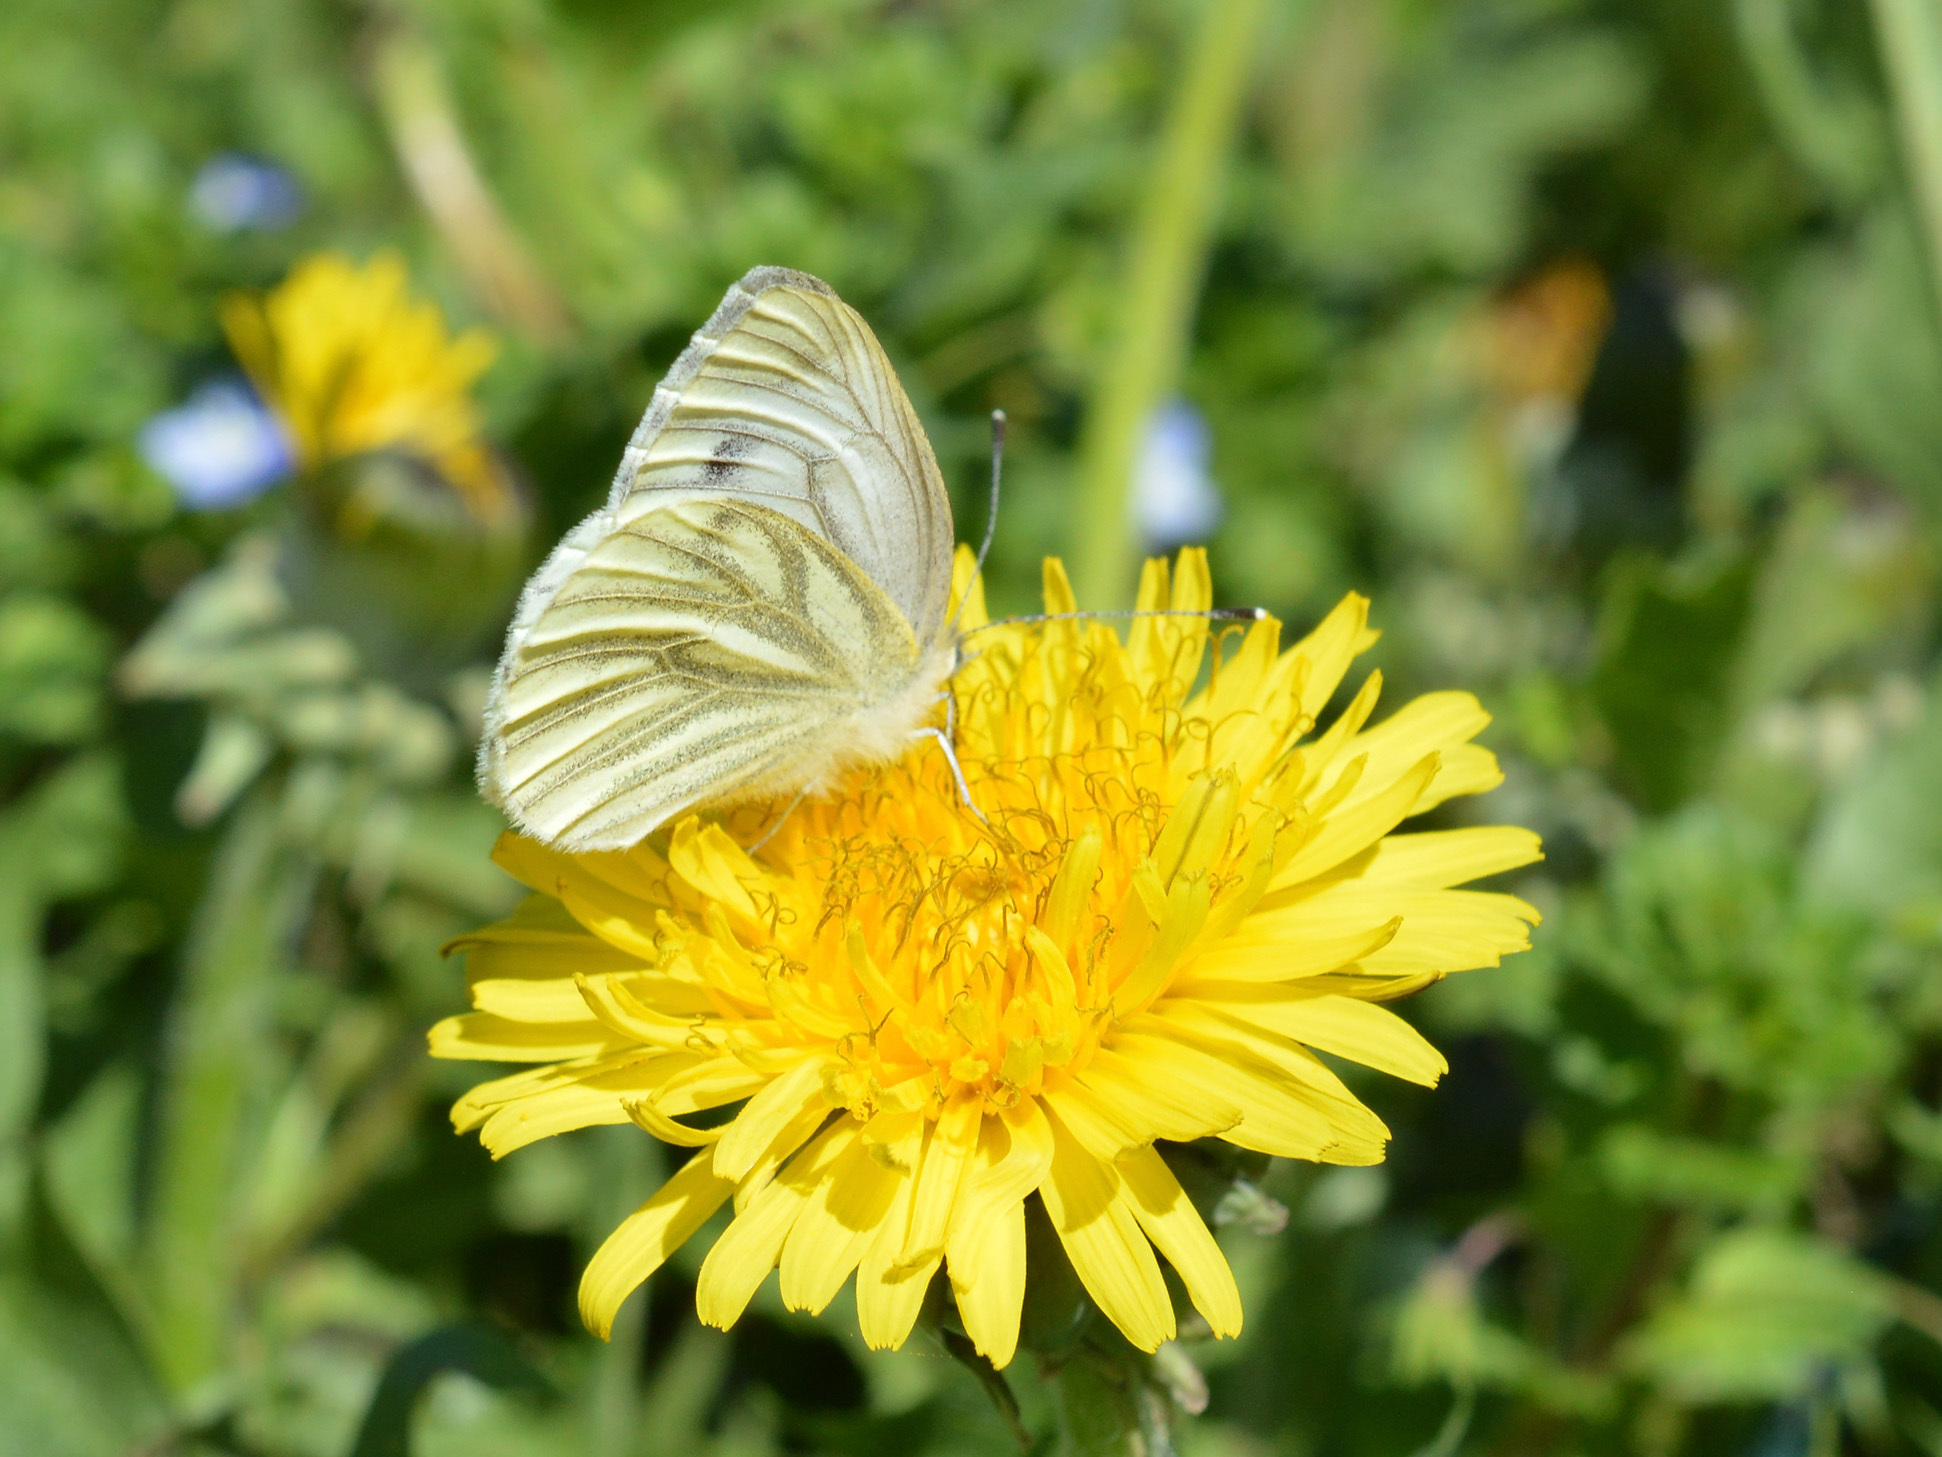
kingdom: Animalia
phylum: Arthropoda
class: Insecta
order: Lepidoptera
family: Pieridae
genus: Pieris
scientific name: Pieris napi
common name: Green-veined white
